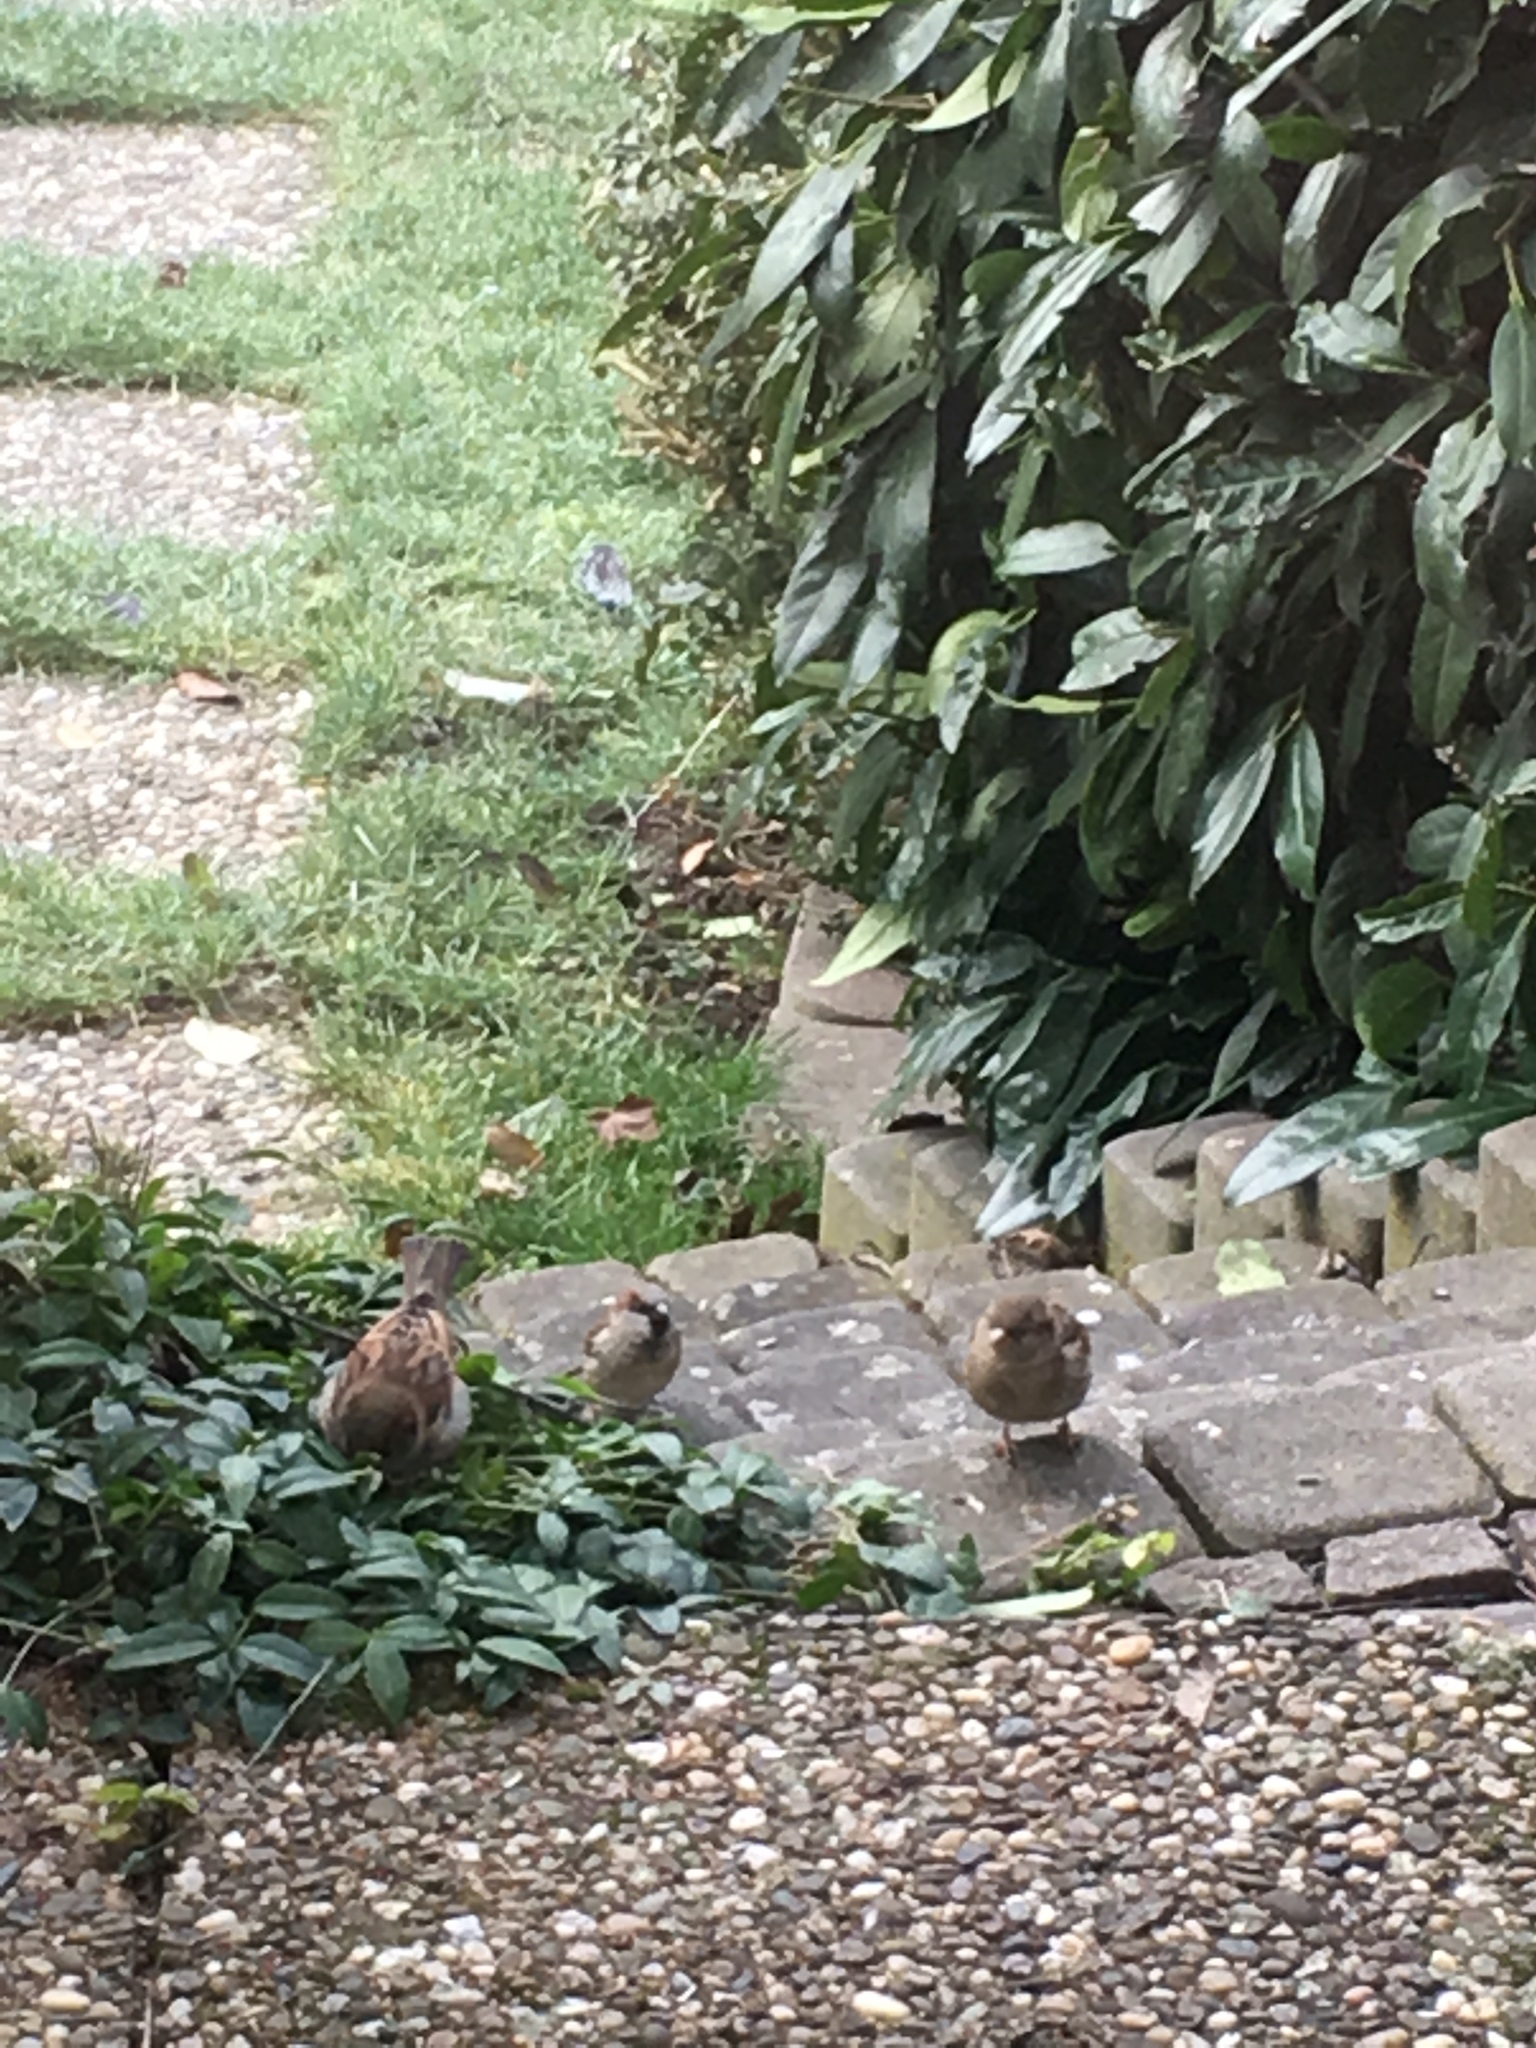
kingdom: Animalia
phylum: Chordata
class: Aves
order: Passeriformes
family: Passeridae
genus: Passer
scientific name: Passer domesticus
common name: House sparrow
